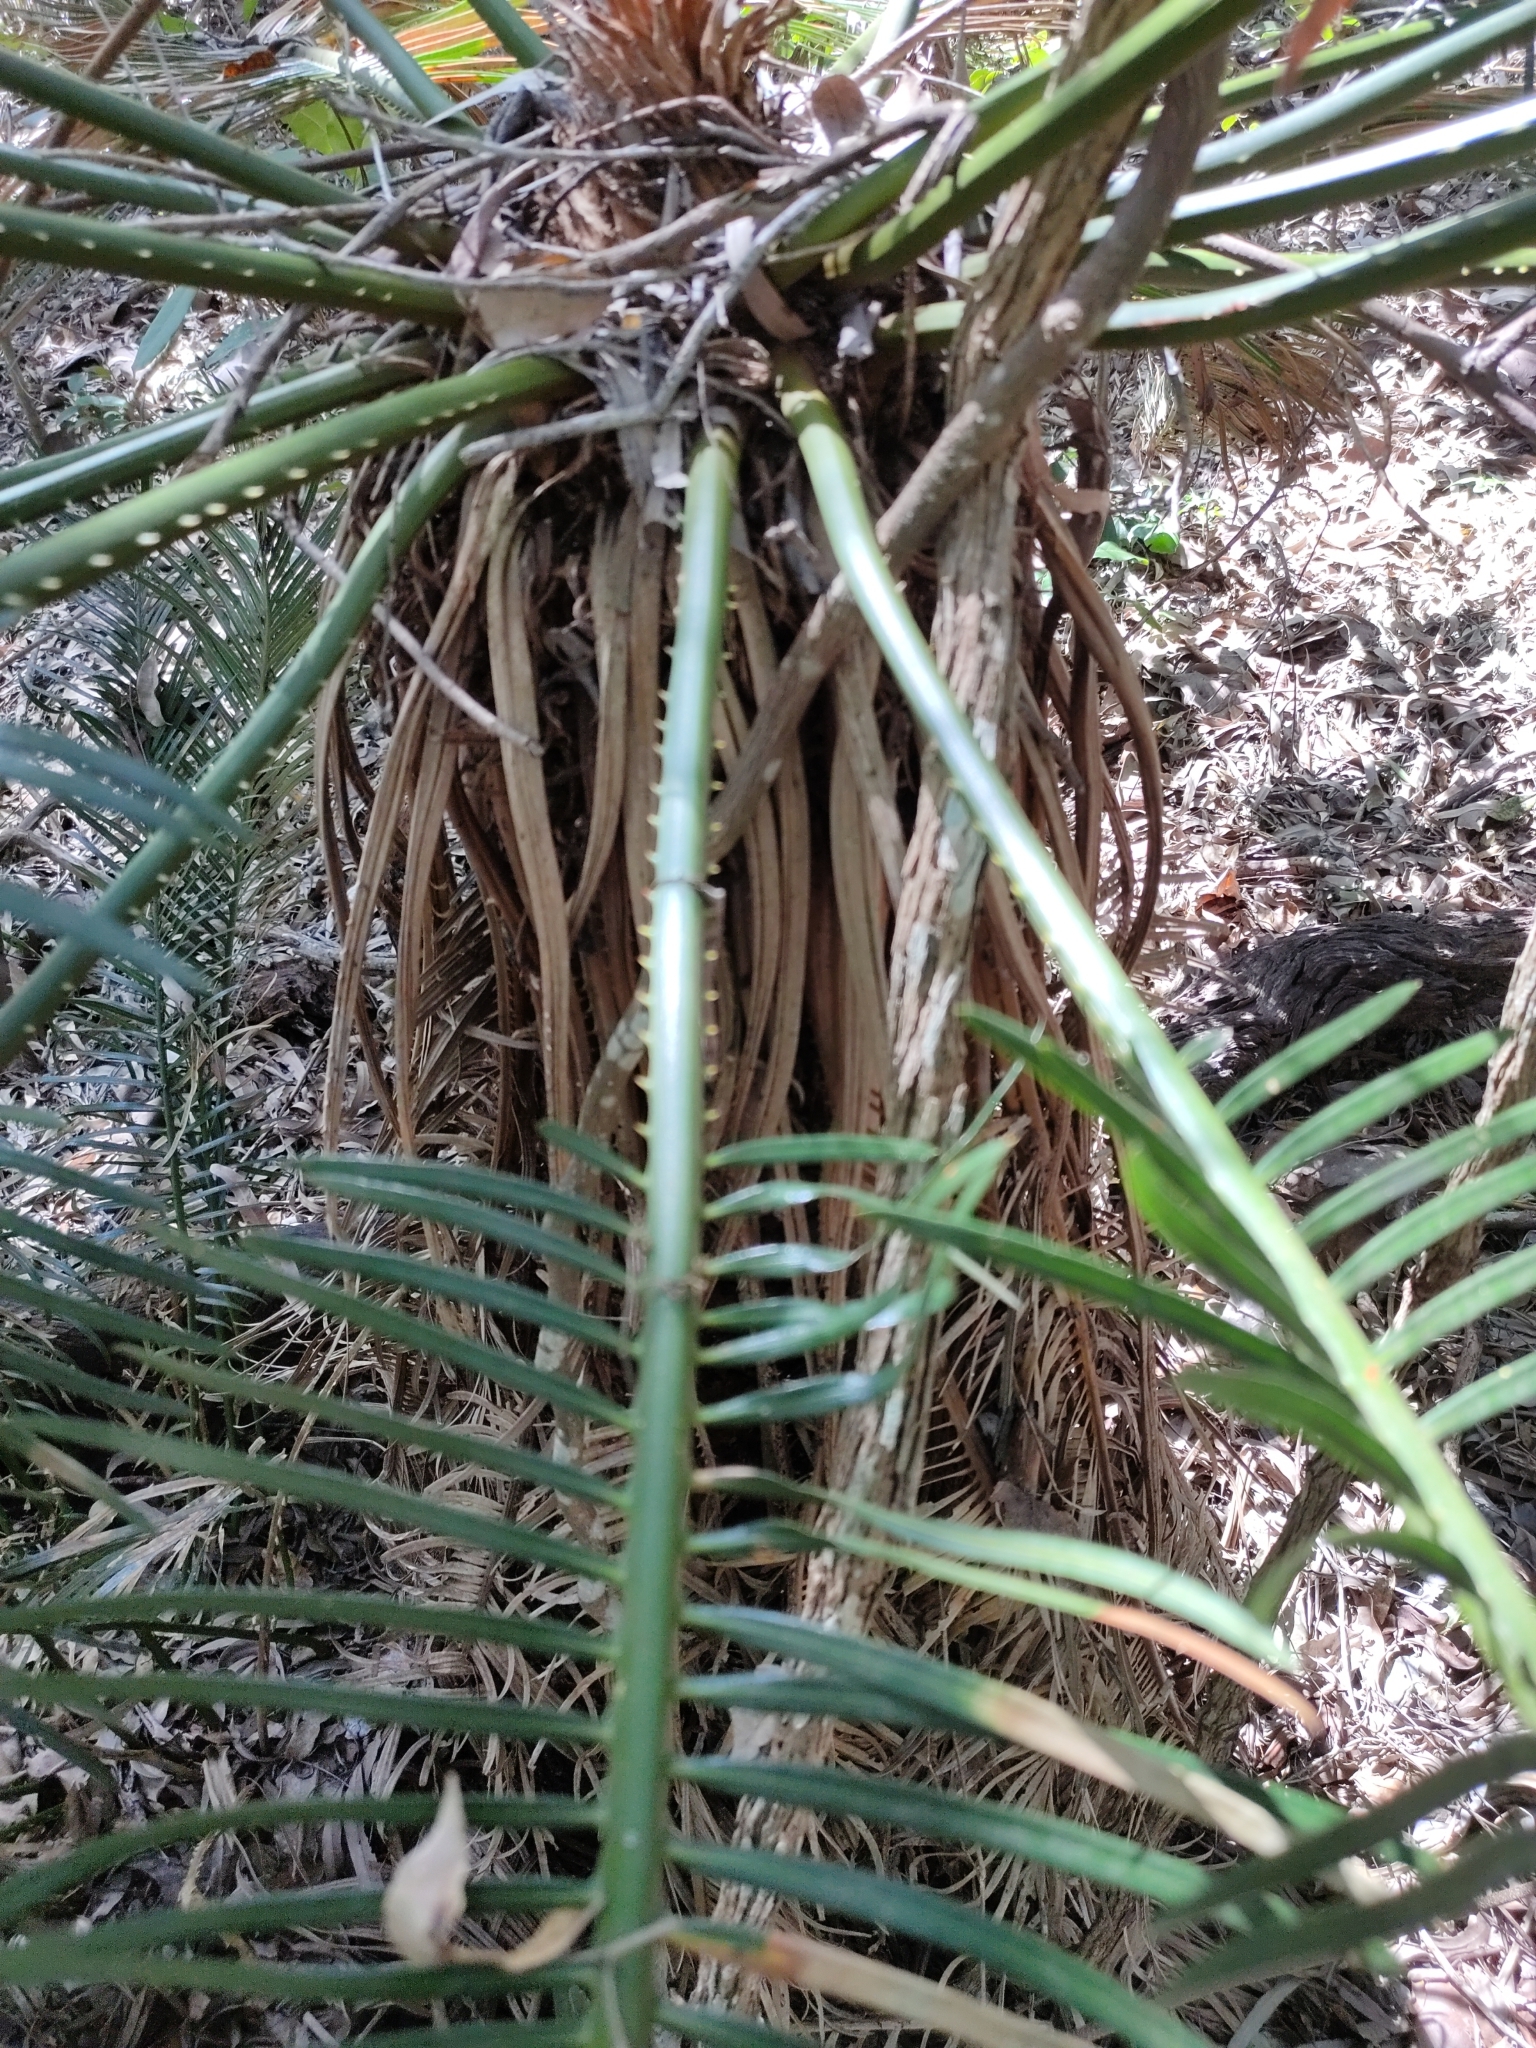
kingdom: Plantae
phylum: Tracheophyta
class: Cycadopsida
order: Cycadales
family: Cycadaceae
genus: Cycas
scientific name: Cycas ophiolitica
